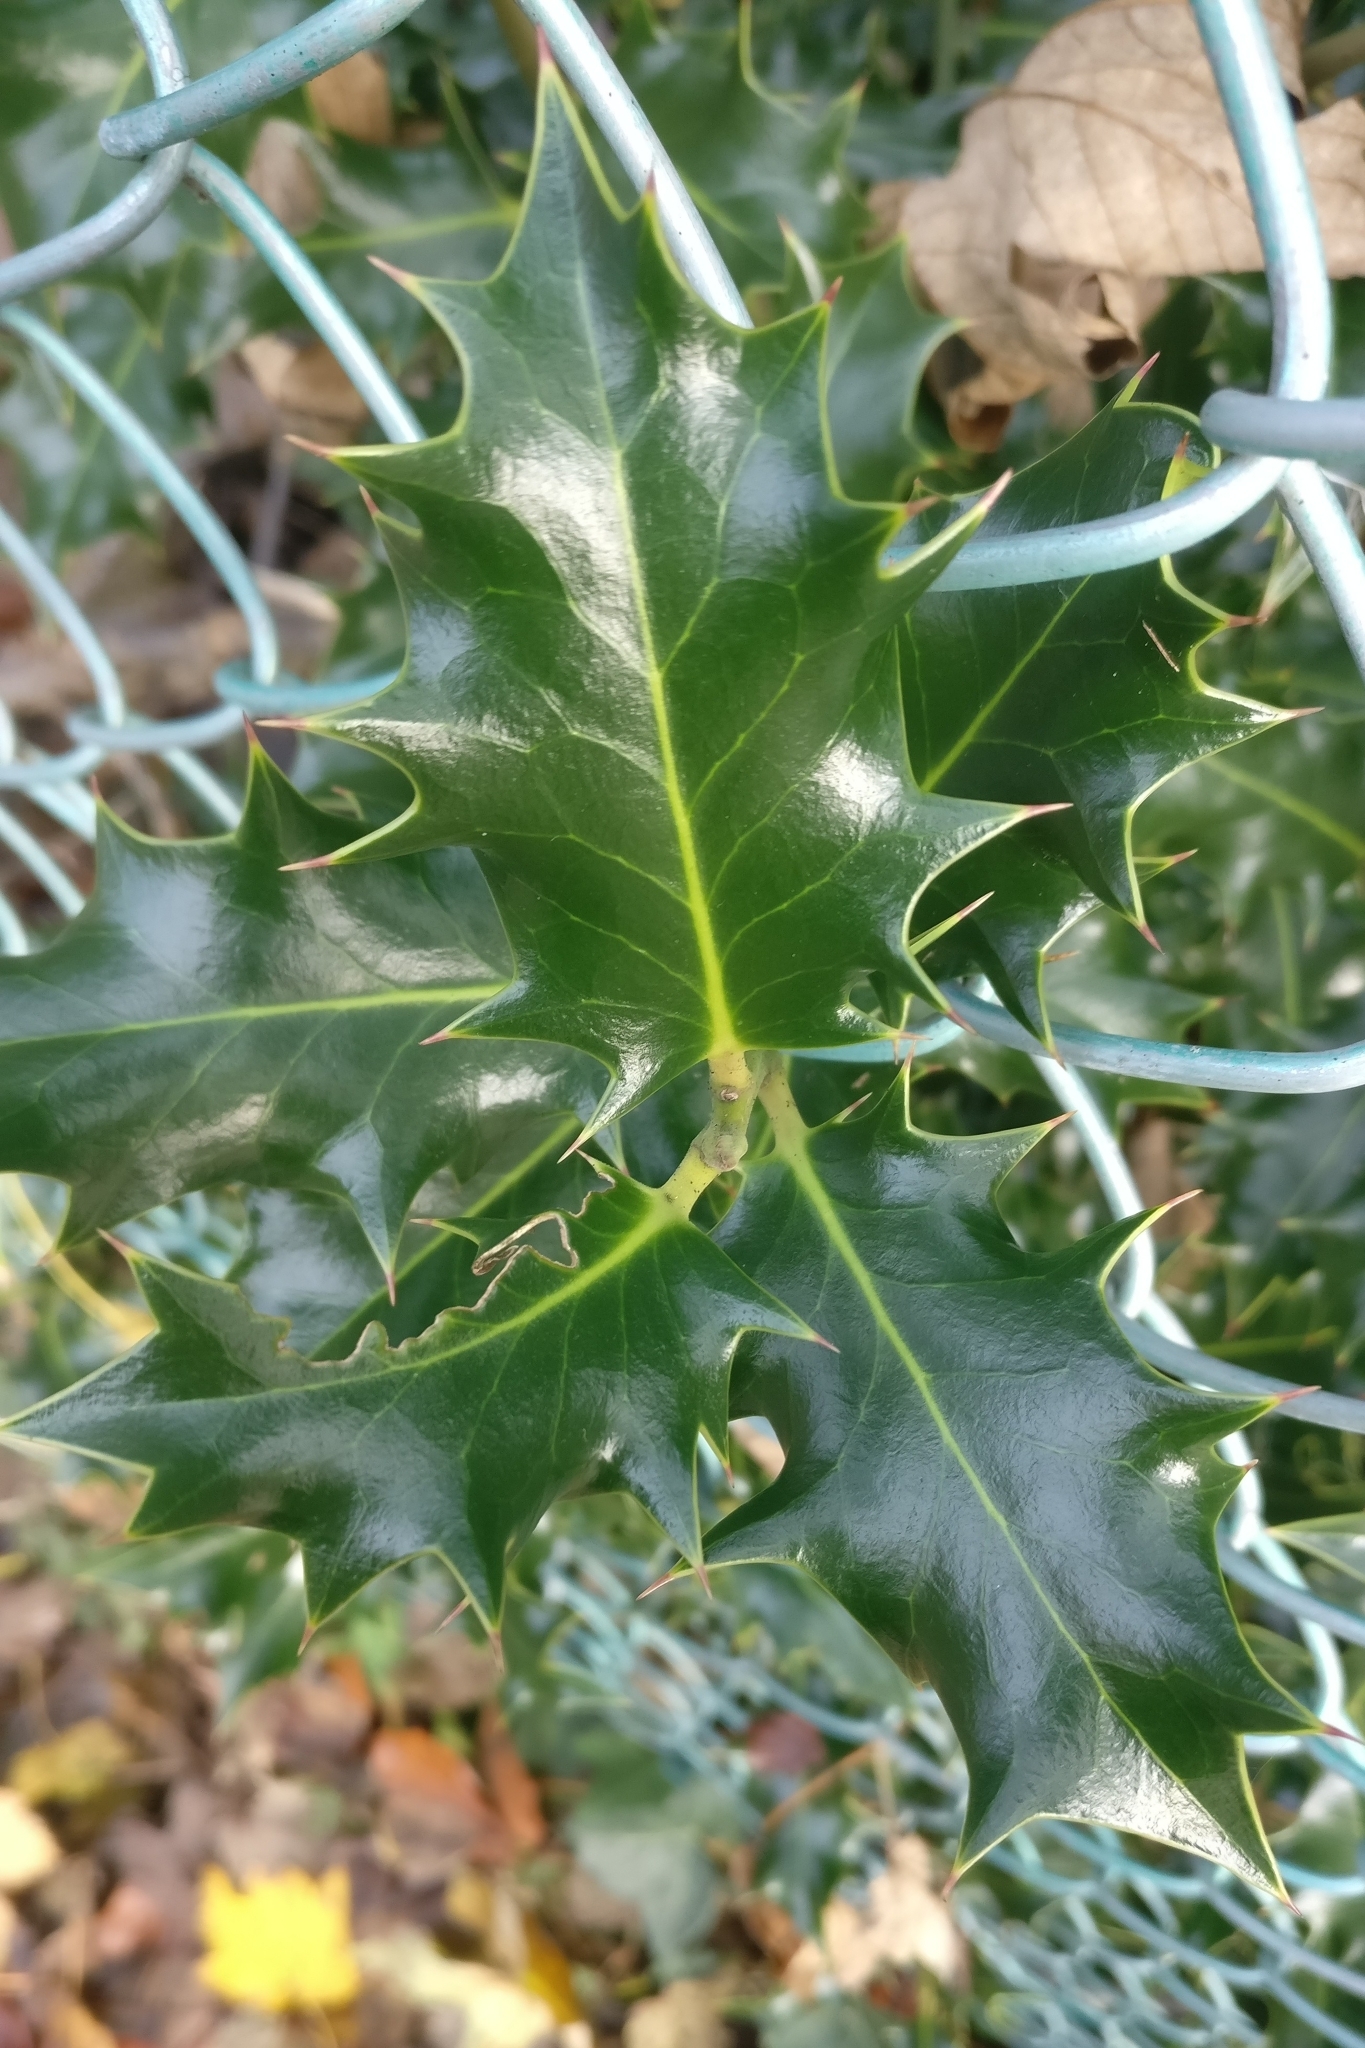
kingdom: Plantae
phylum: Tracheophyta
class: Magnoliopsida
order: Aquifoliales
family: Aquifoliaceae
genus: Ilex
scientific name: Ilex aquifolium
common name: English holly
